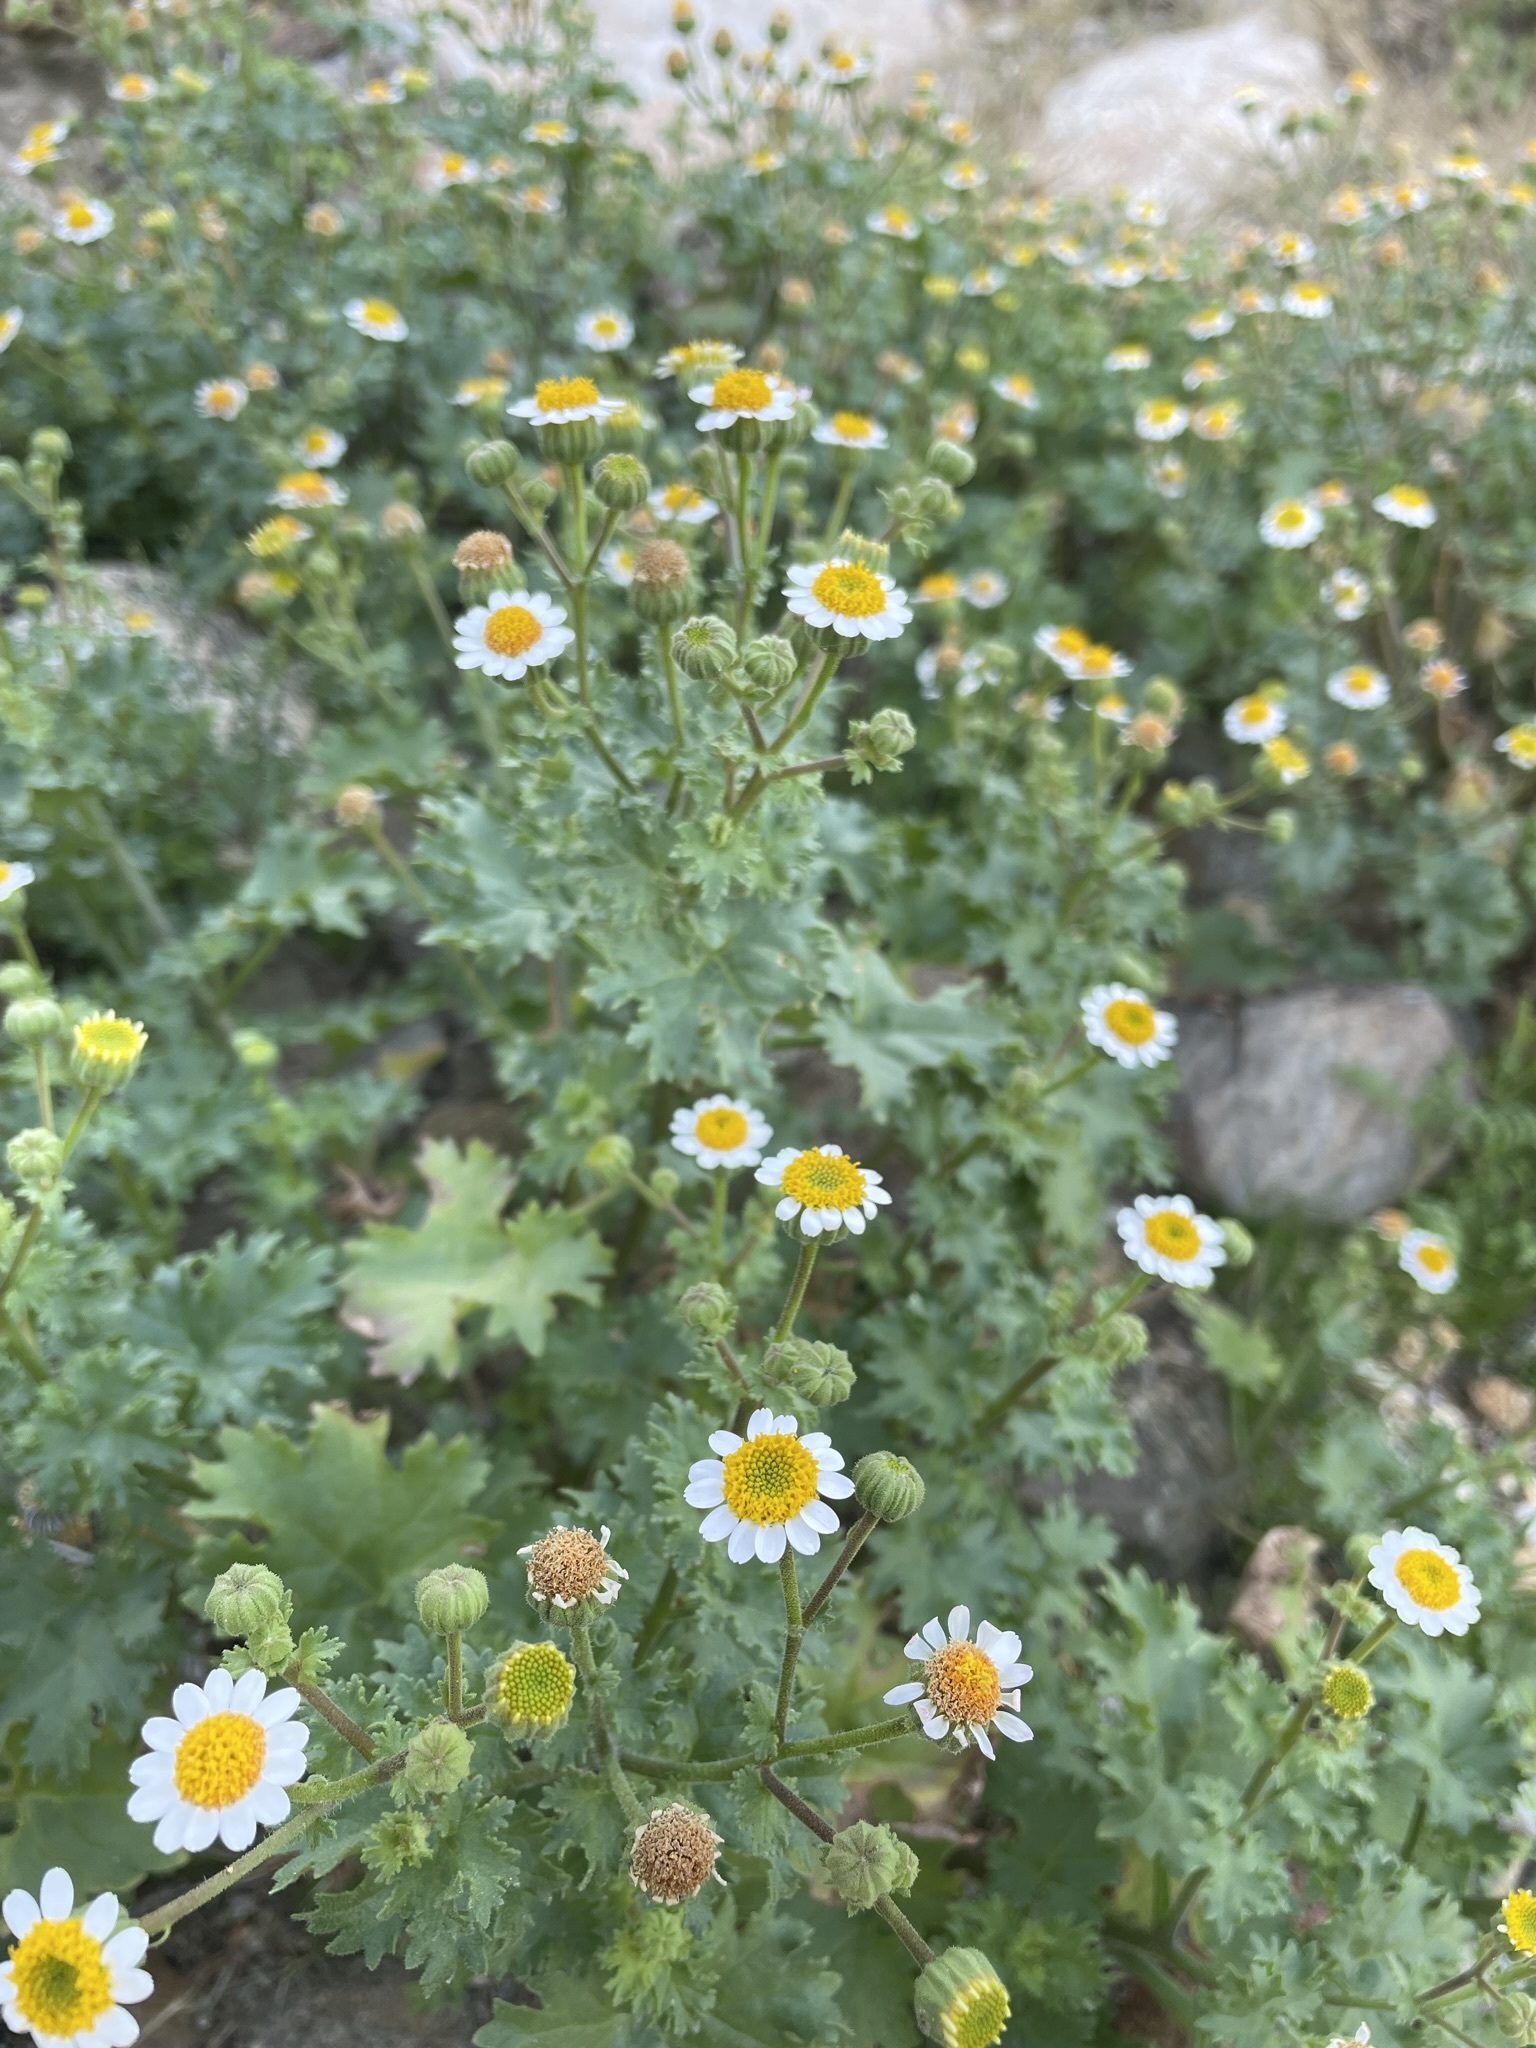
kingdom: Plantae
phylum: Tracheophyta
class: Magnoliopsida
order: Asterales
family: Asteraceae
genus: Laphamia
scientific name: Laphamia emoryi
